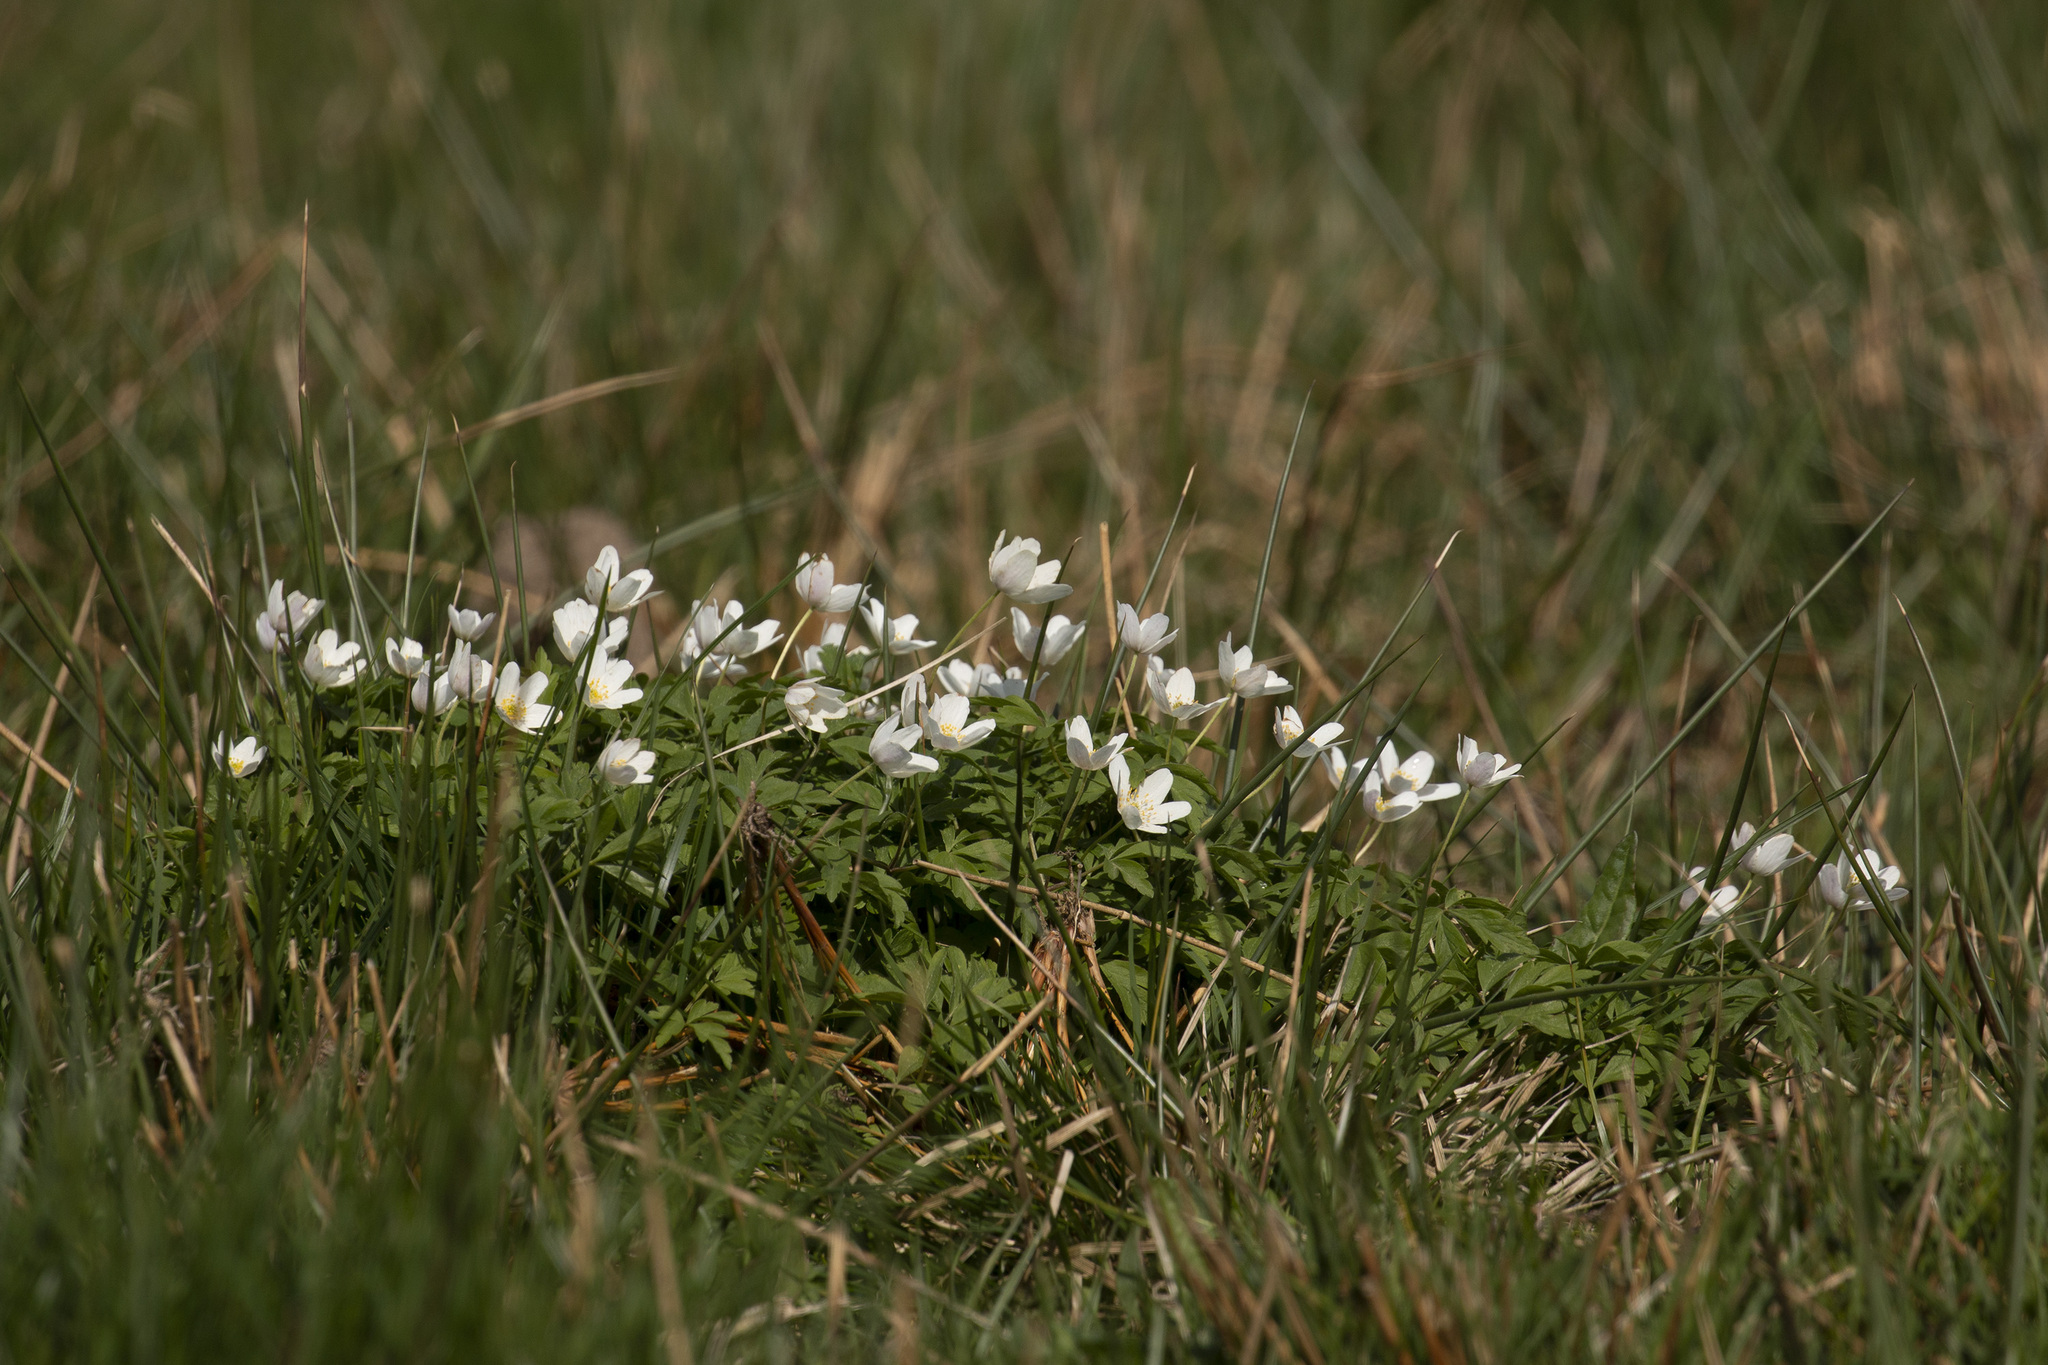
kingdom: Plantae
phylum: Tracheophyta
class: Magnoliopsida
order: Ranunculales
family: Ranunculaceae
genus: Anemone
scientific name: Anemone nemorosa
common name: Wood anemone
